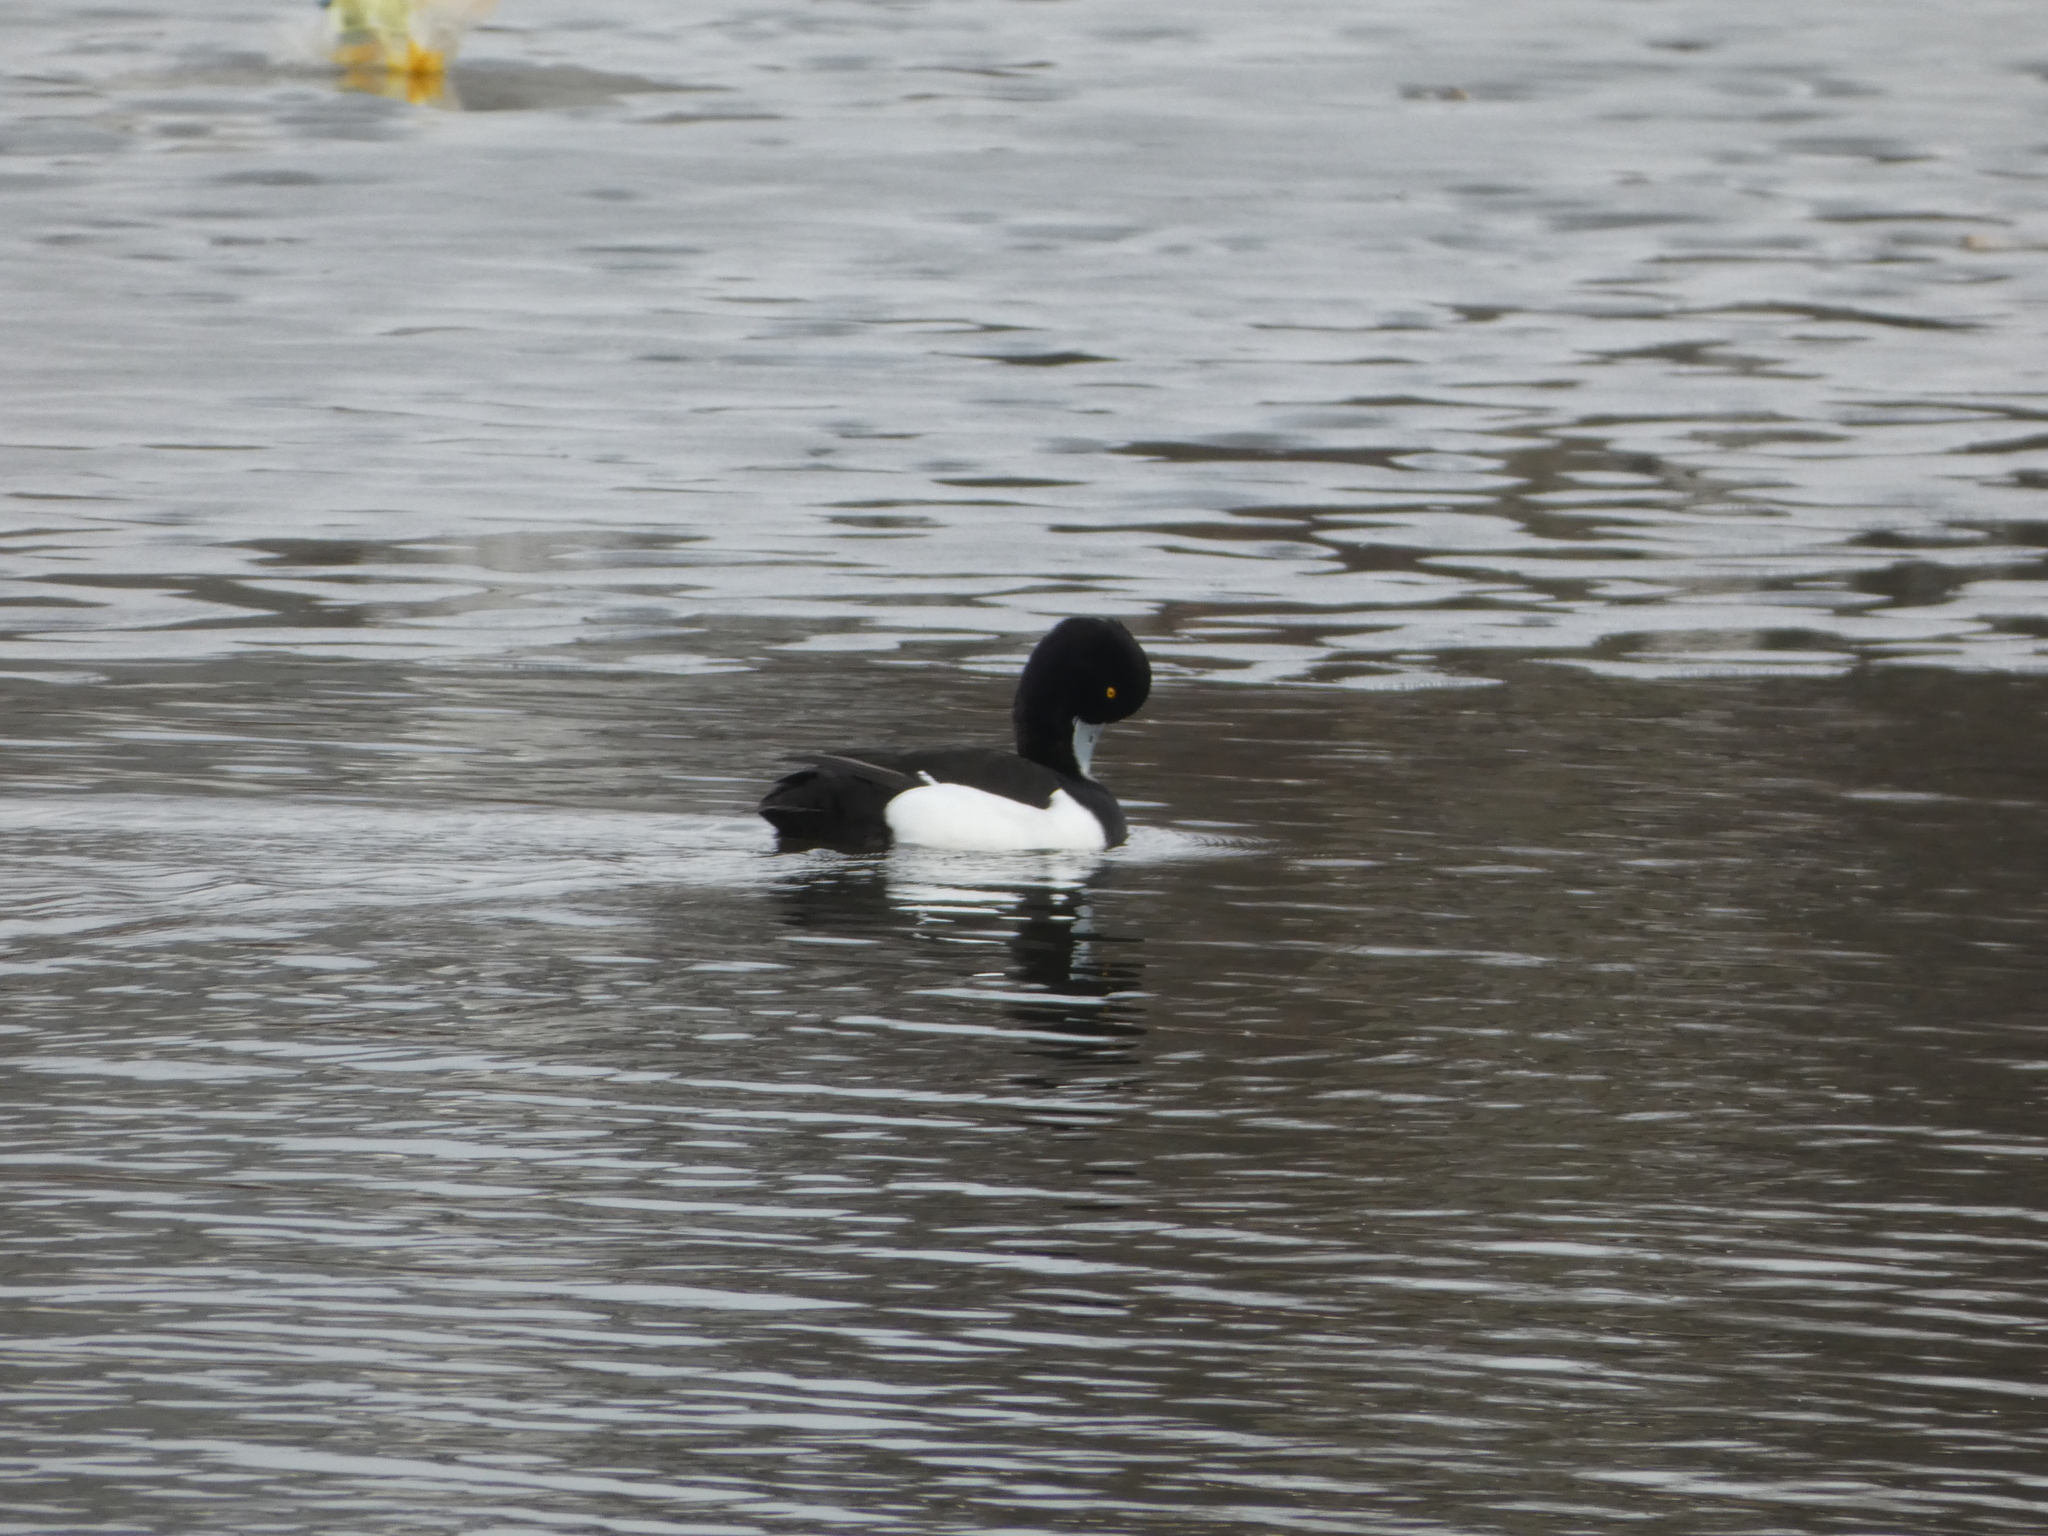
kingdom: Animalia
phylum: Chordata
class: Aves
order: Anseriformes
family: Anatidae
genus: Aythya
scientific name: Aythya fuligula
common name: Tufted duck
